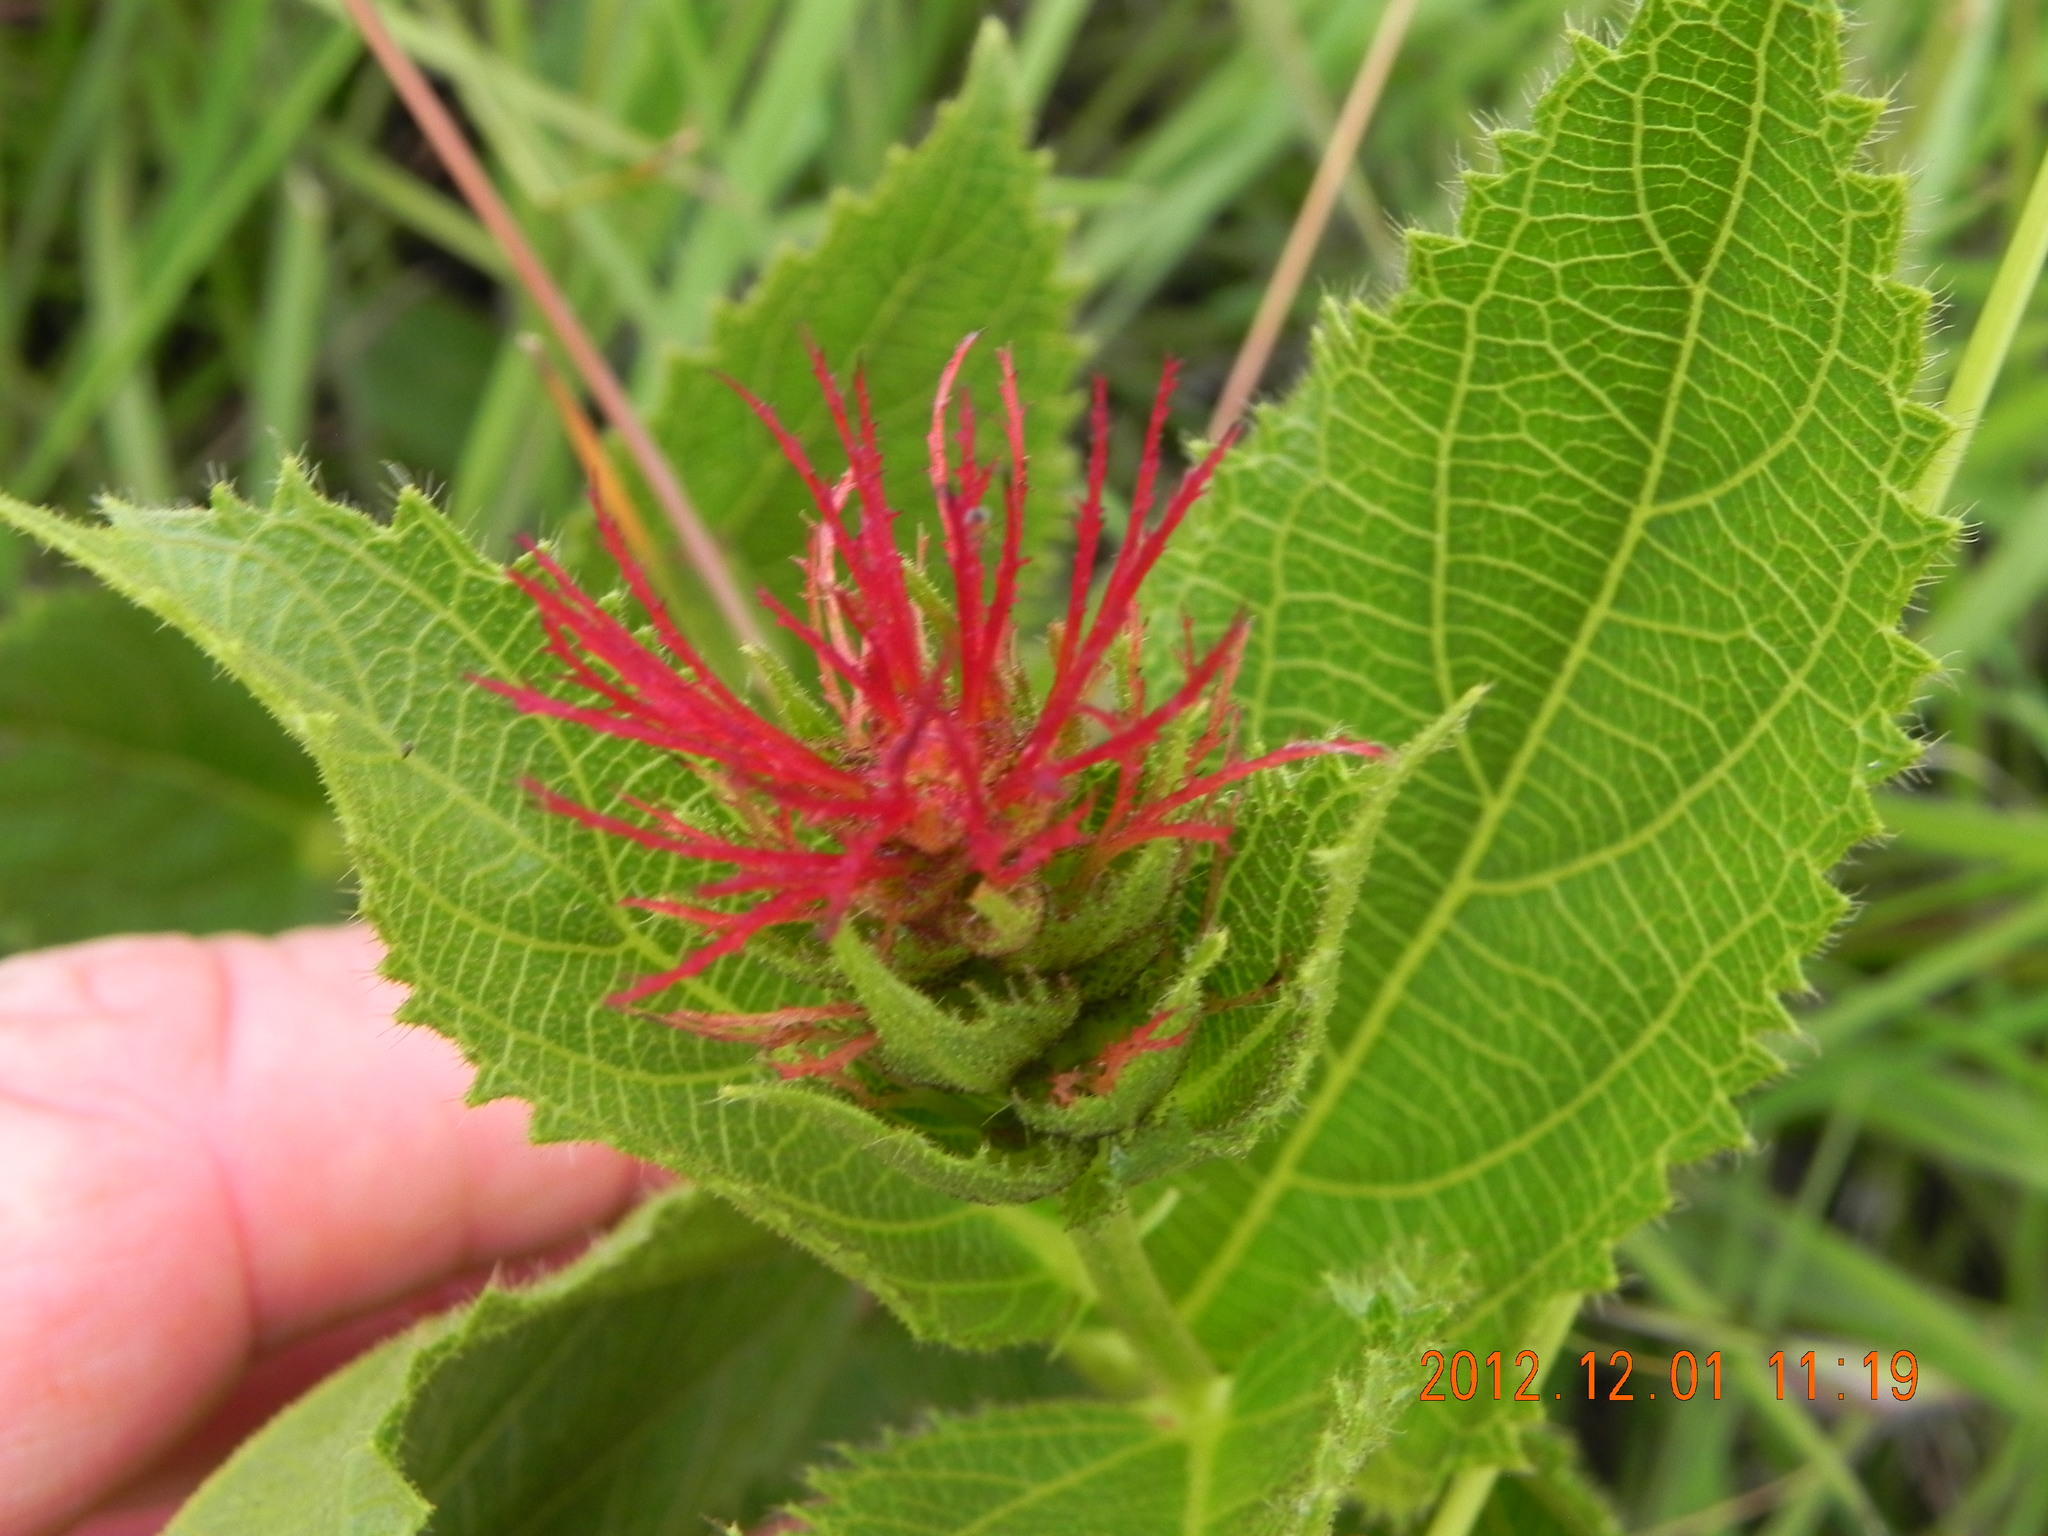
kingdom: Plantae
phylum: Tracheophyta
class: Magnoliopsida
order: Malpighiales
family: Euphorbiaceae
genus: Acalypha
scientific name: Acalypha punctata
